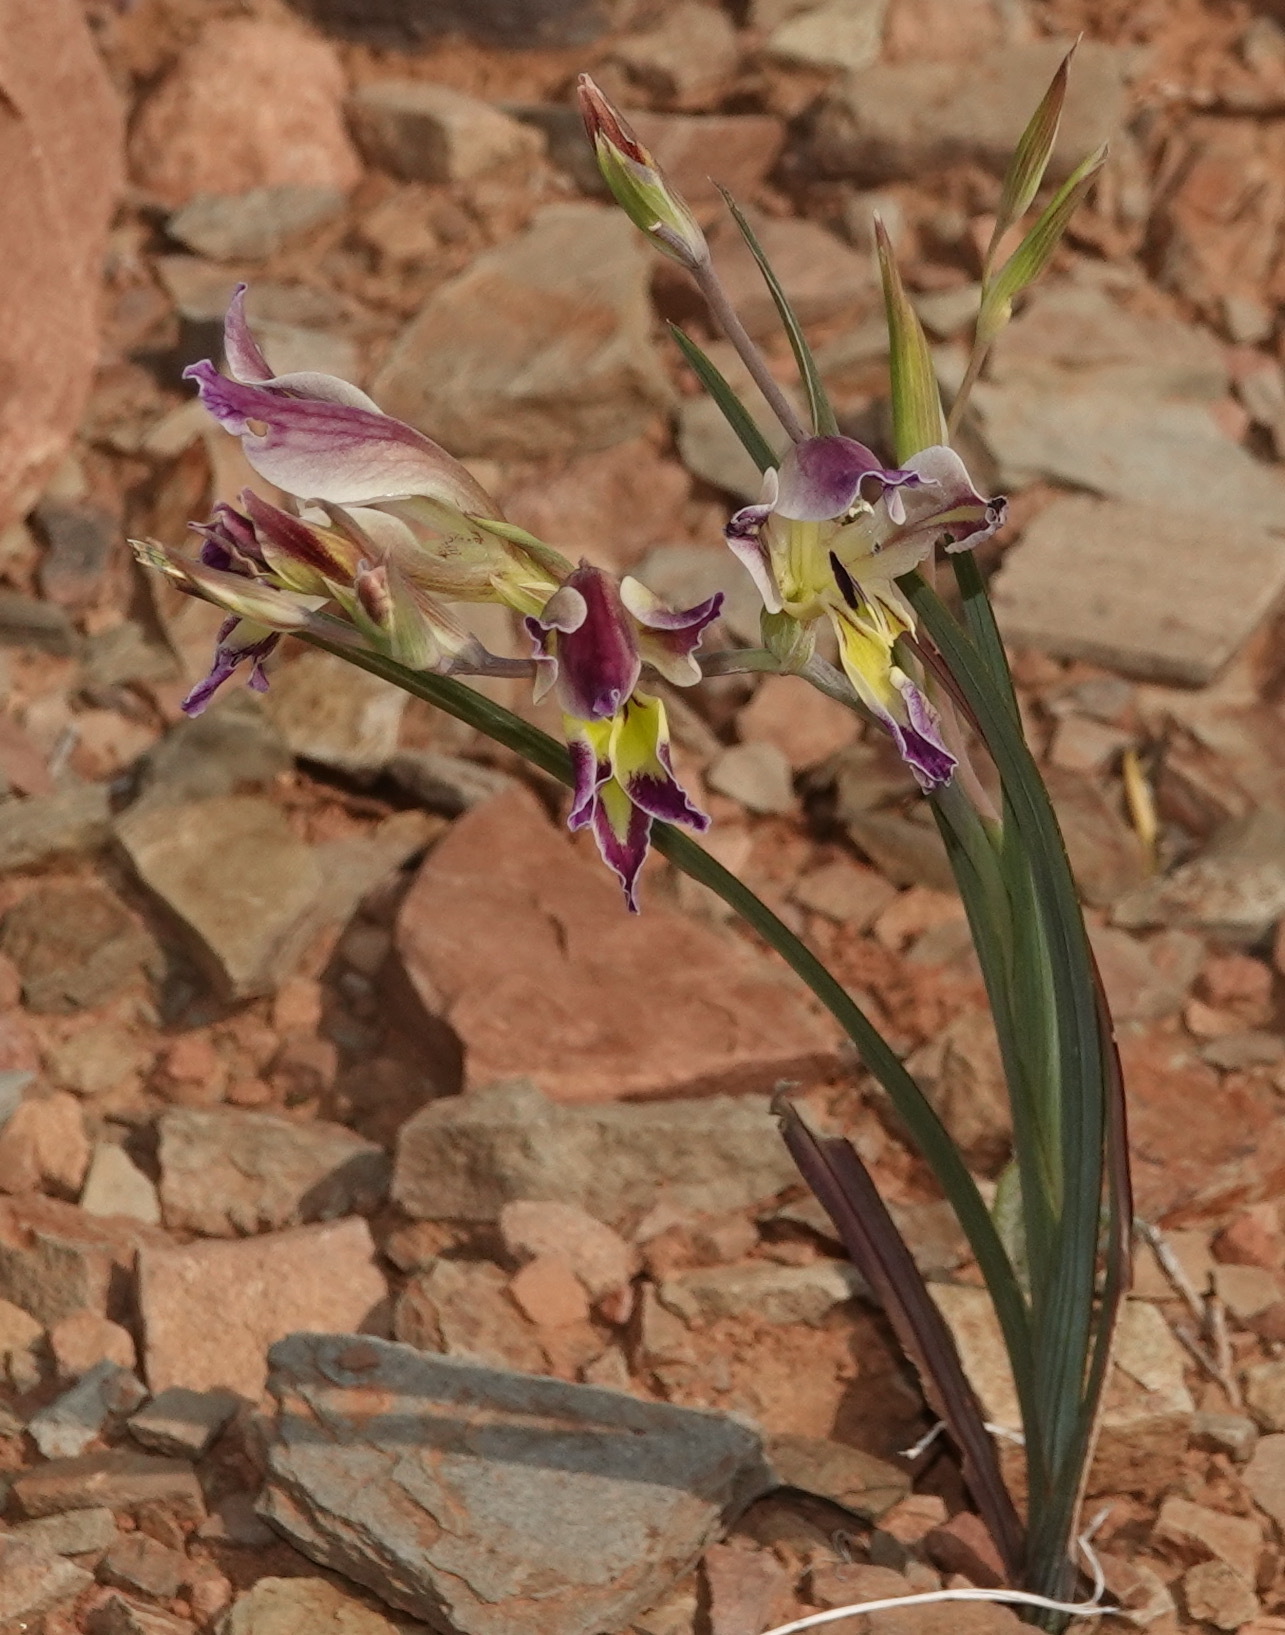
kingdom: Plantae
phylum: Tracheophyta
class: Liliopsida
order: Asparagales
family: Iridaceae
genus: Gladiolus
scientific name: Gladiolus scullyi
